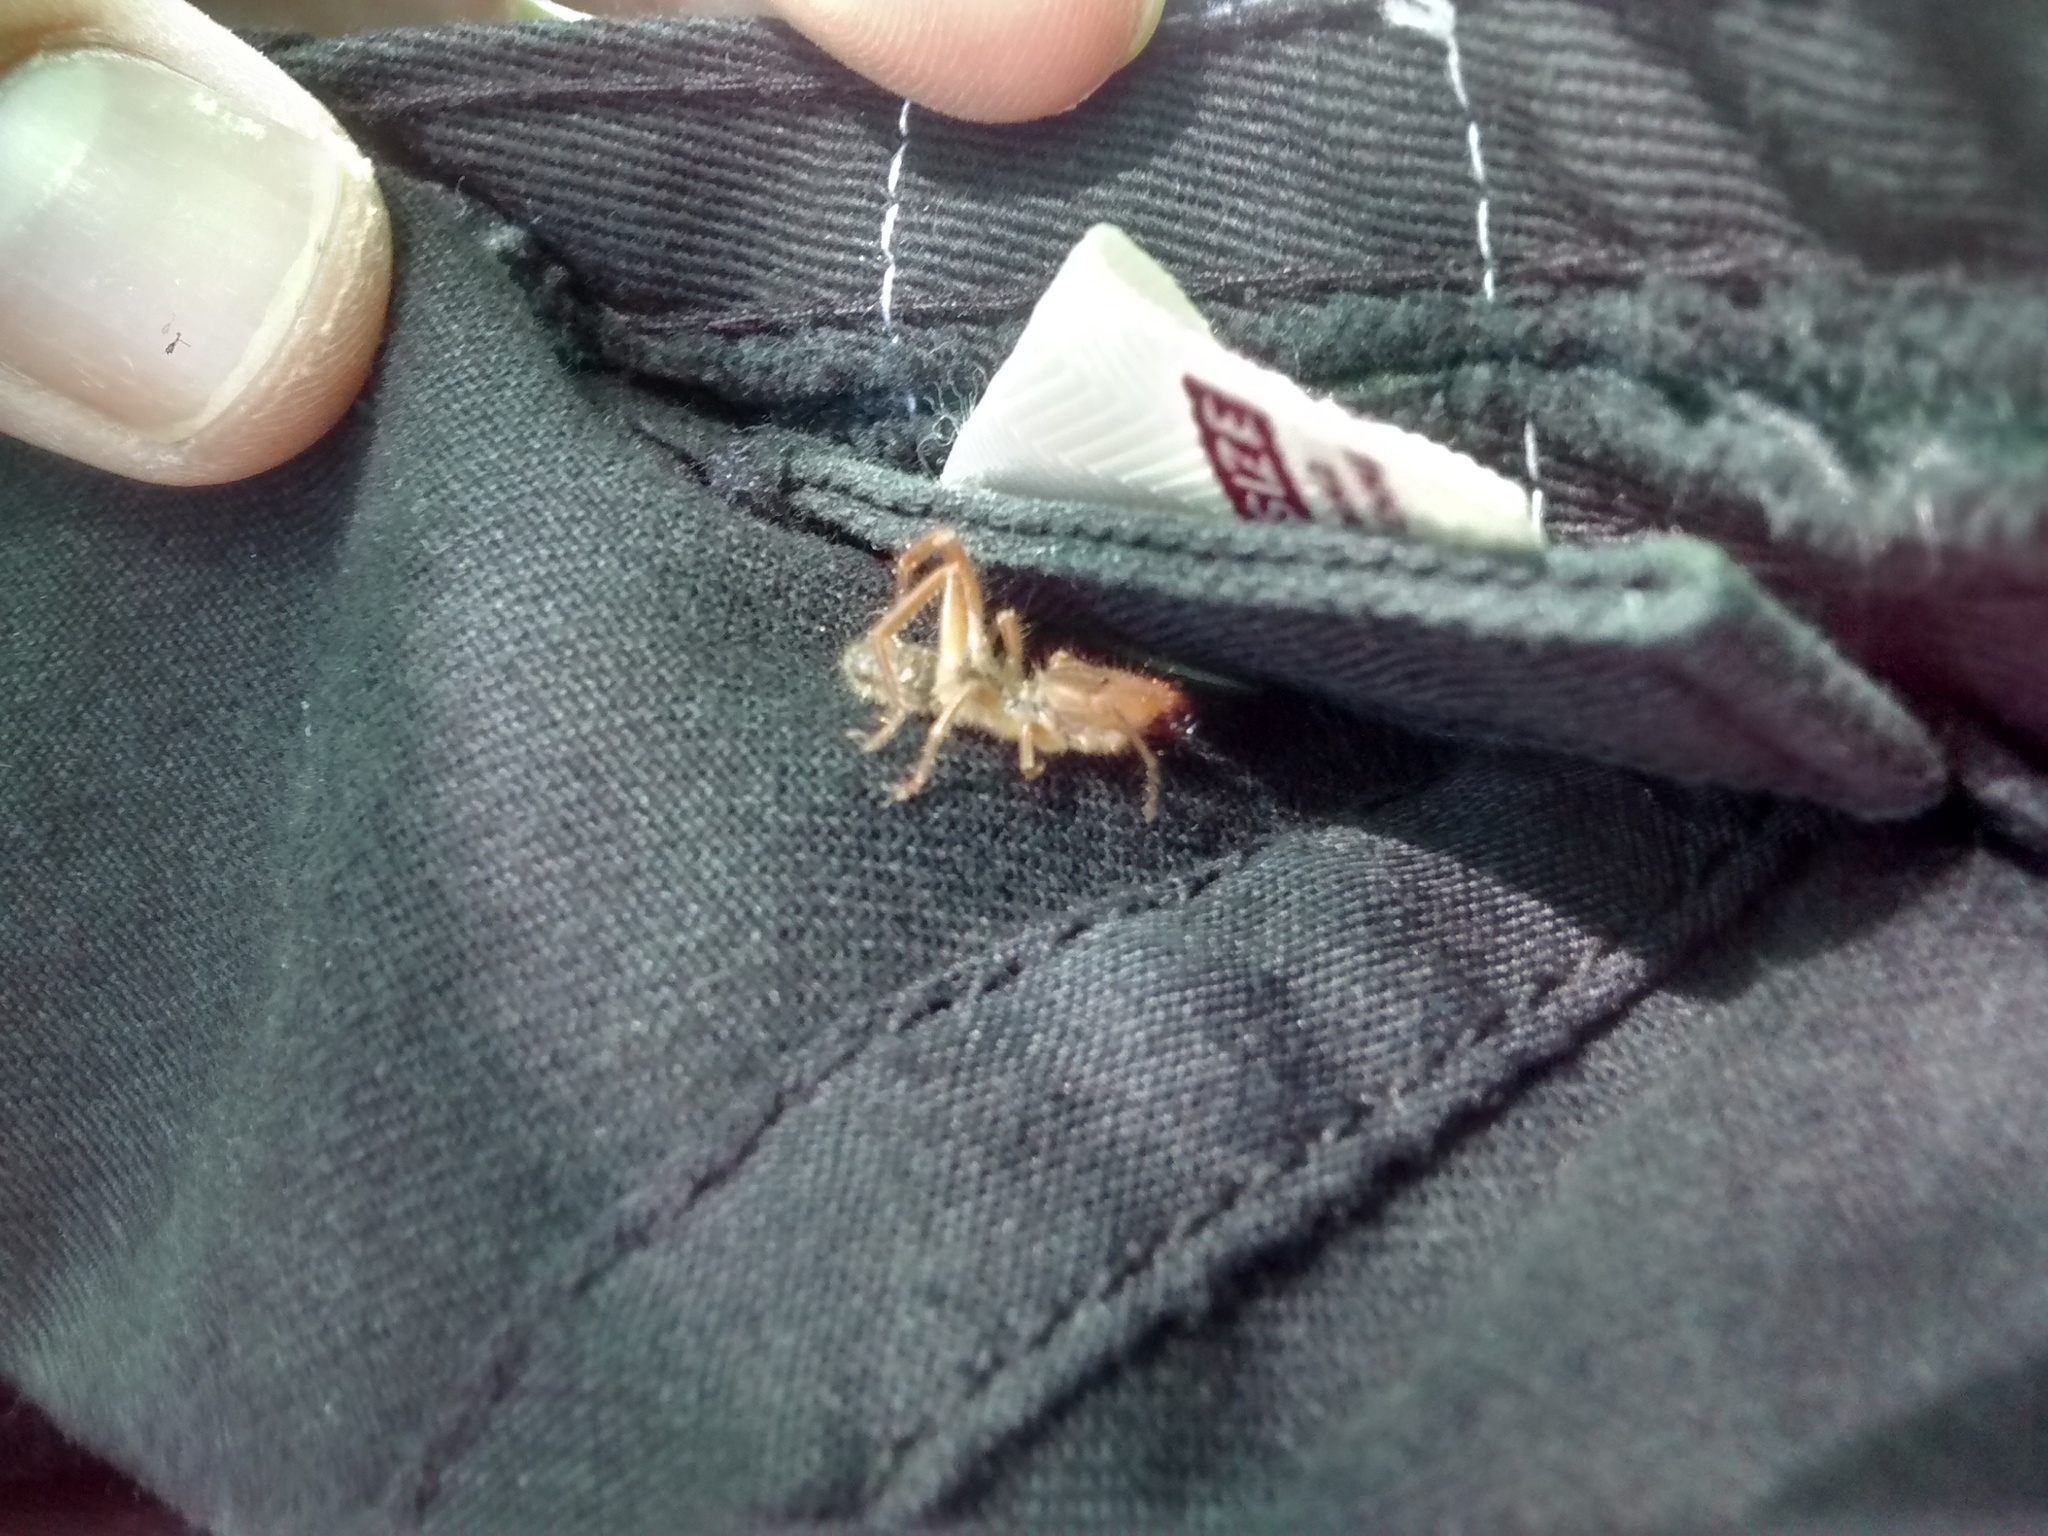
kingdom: Animalia
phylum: Arthropoda
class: Arachnida
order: Solifugae
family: Daesiidae
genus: Gluvia
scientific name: Gluvia dorsalis
